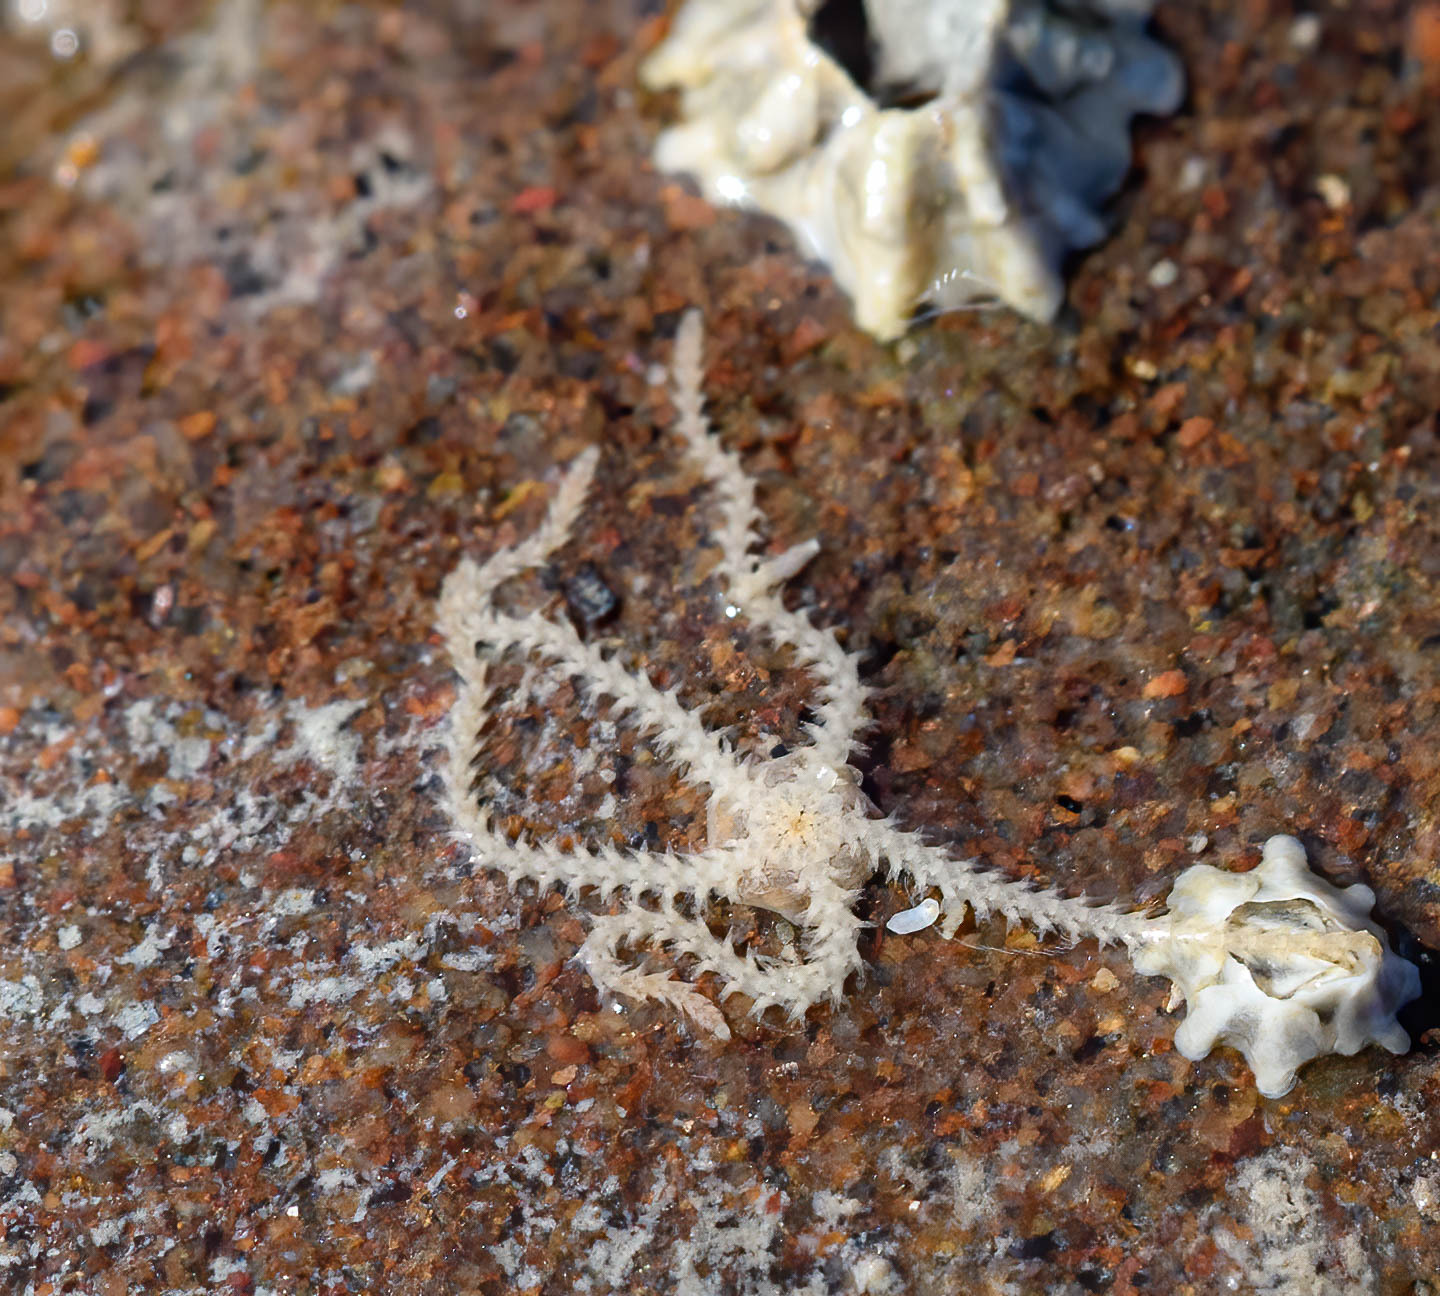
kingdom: Animalia
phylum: Echinodermata
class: Ophiuroidea
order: Amphilepidida
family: Amphiuridae
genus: Amphipholis
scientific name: Amphipholis squamata
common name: Brooding snake star
